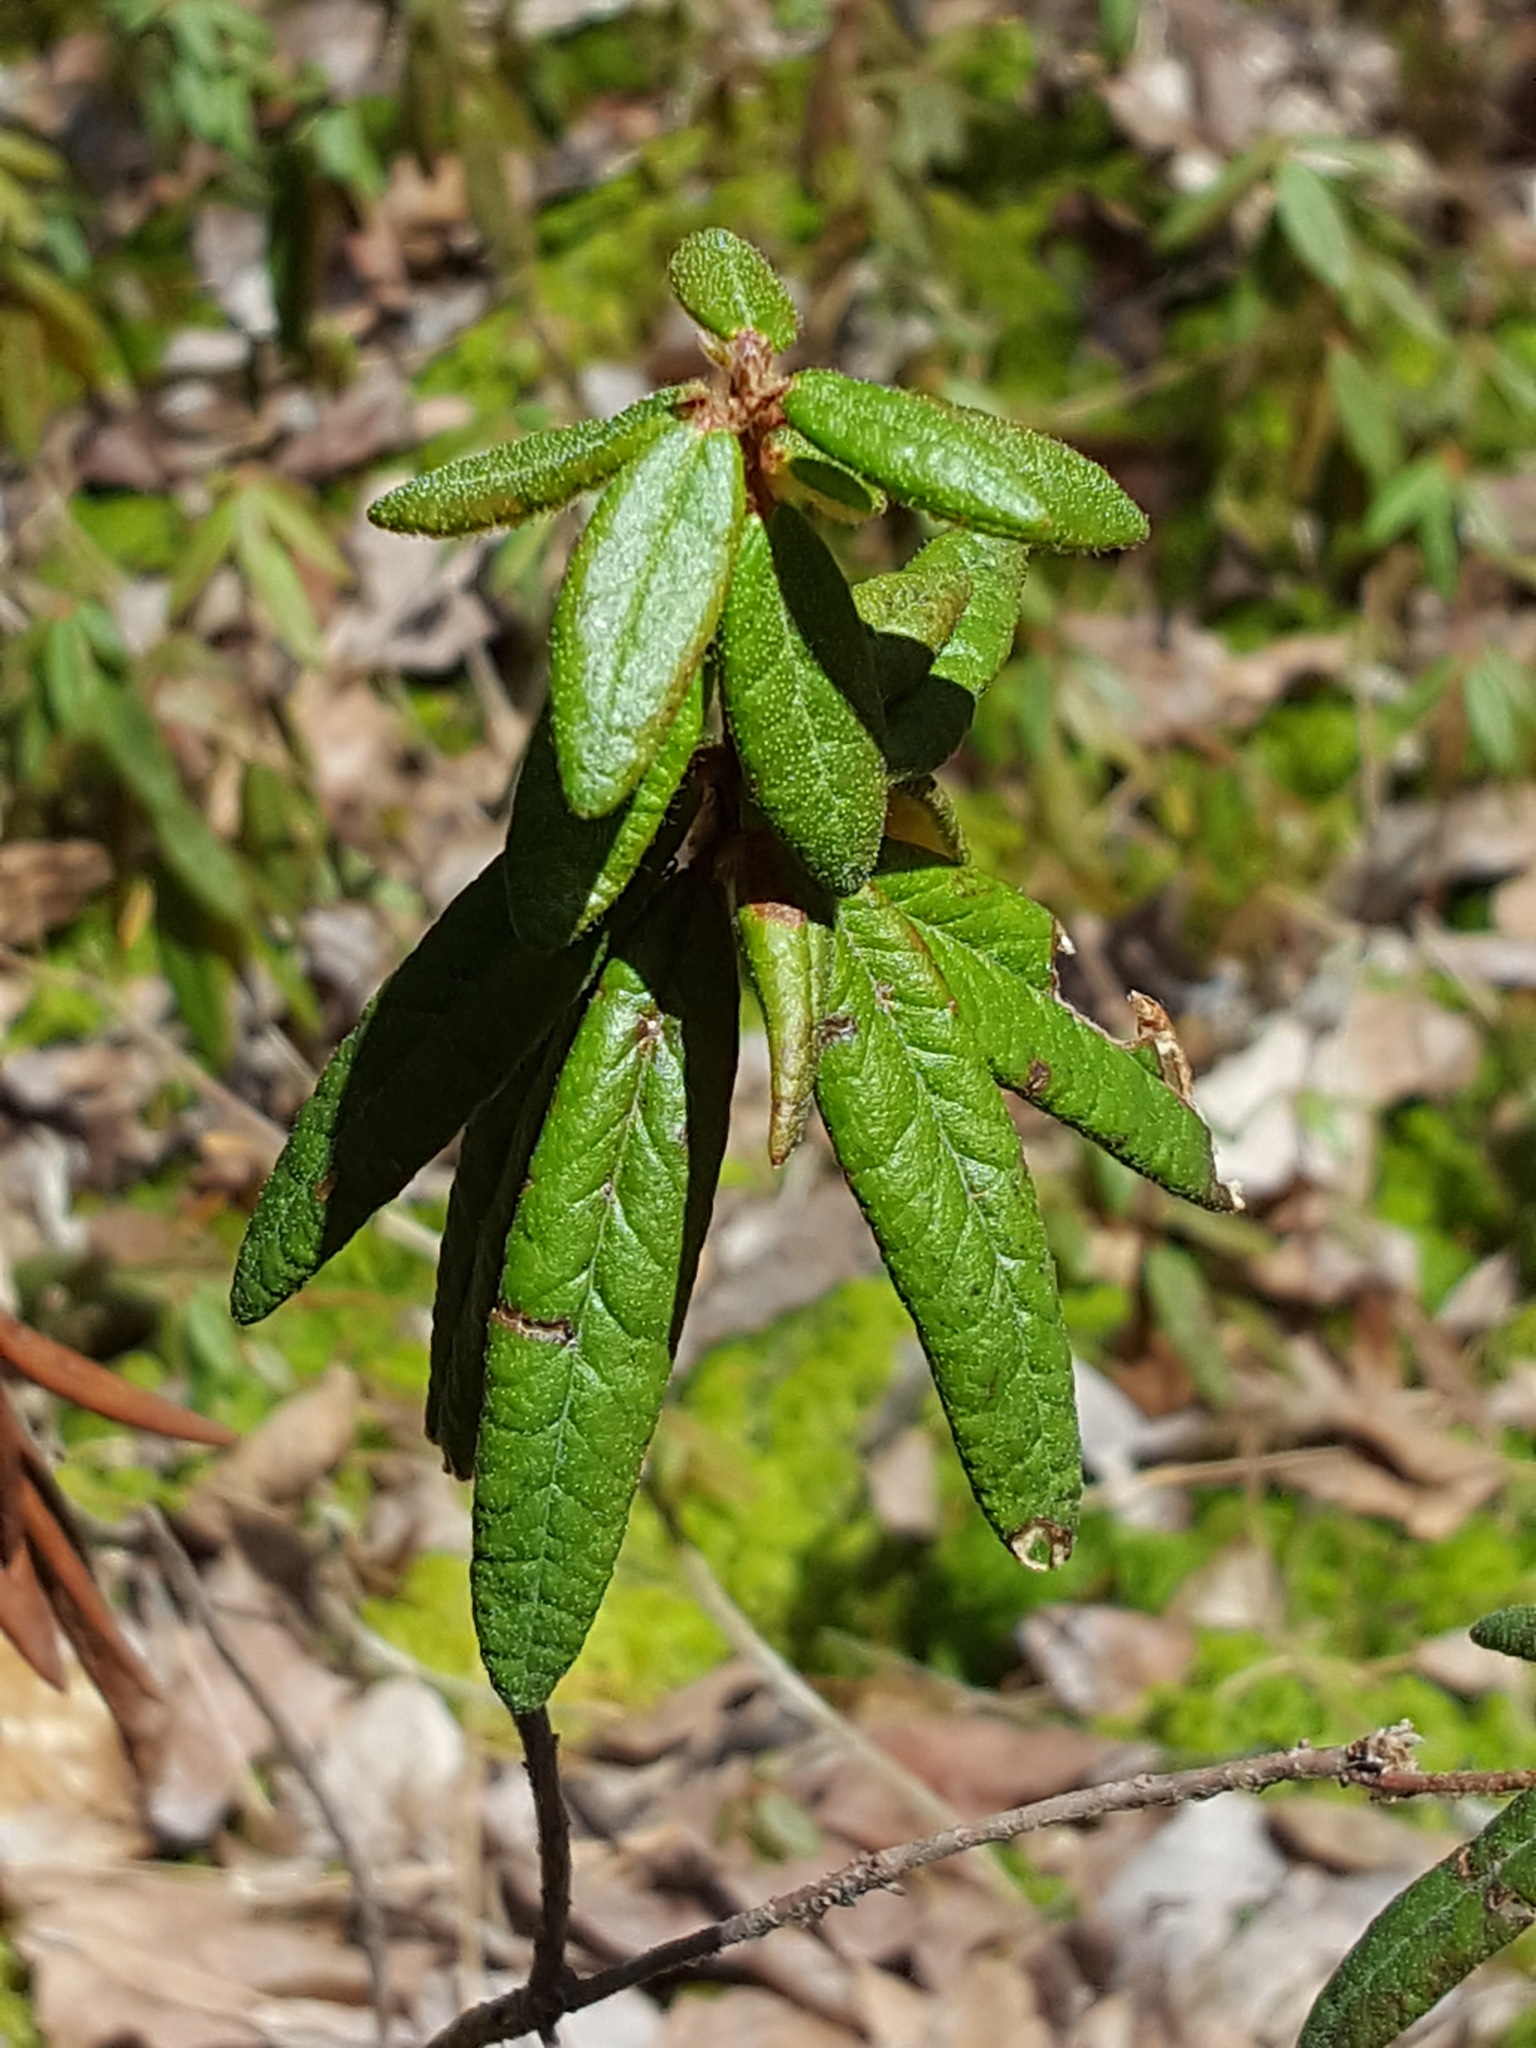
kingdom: Plantae
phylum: Tracheophyta
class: Magnoliopsida
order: Ericales
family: Ericaceae
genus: Rhododendron
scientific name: Rhododendron groenlandicum
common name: Bog labrador tea
